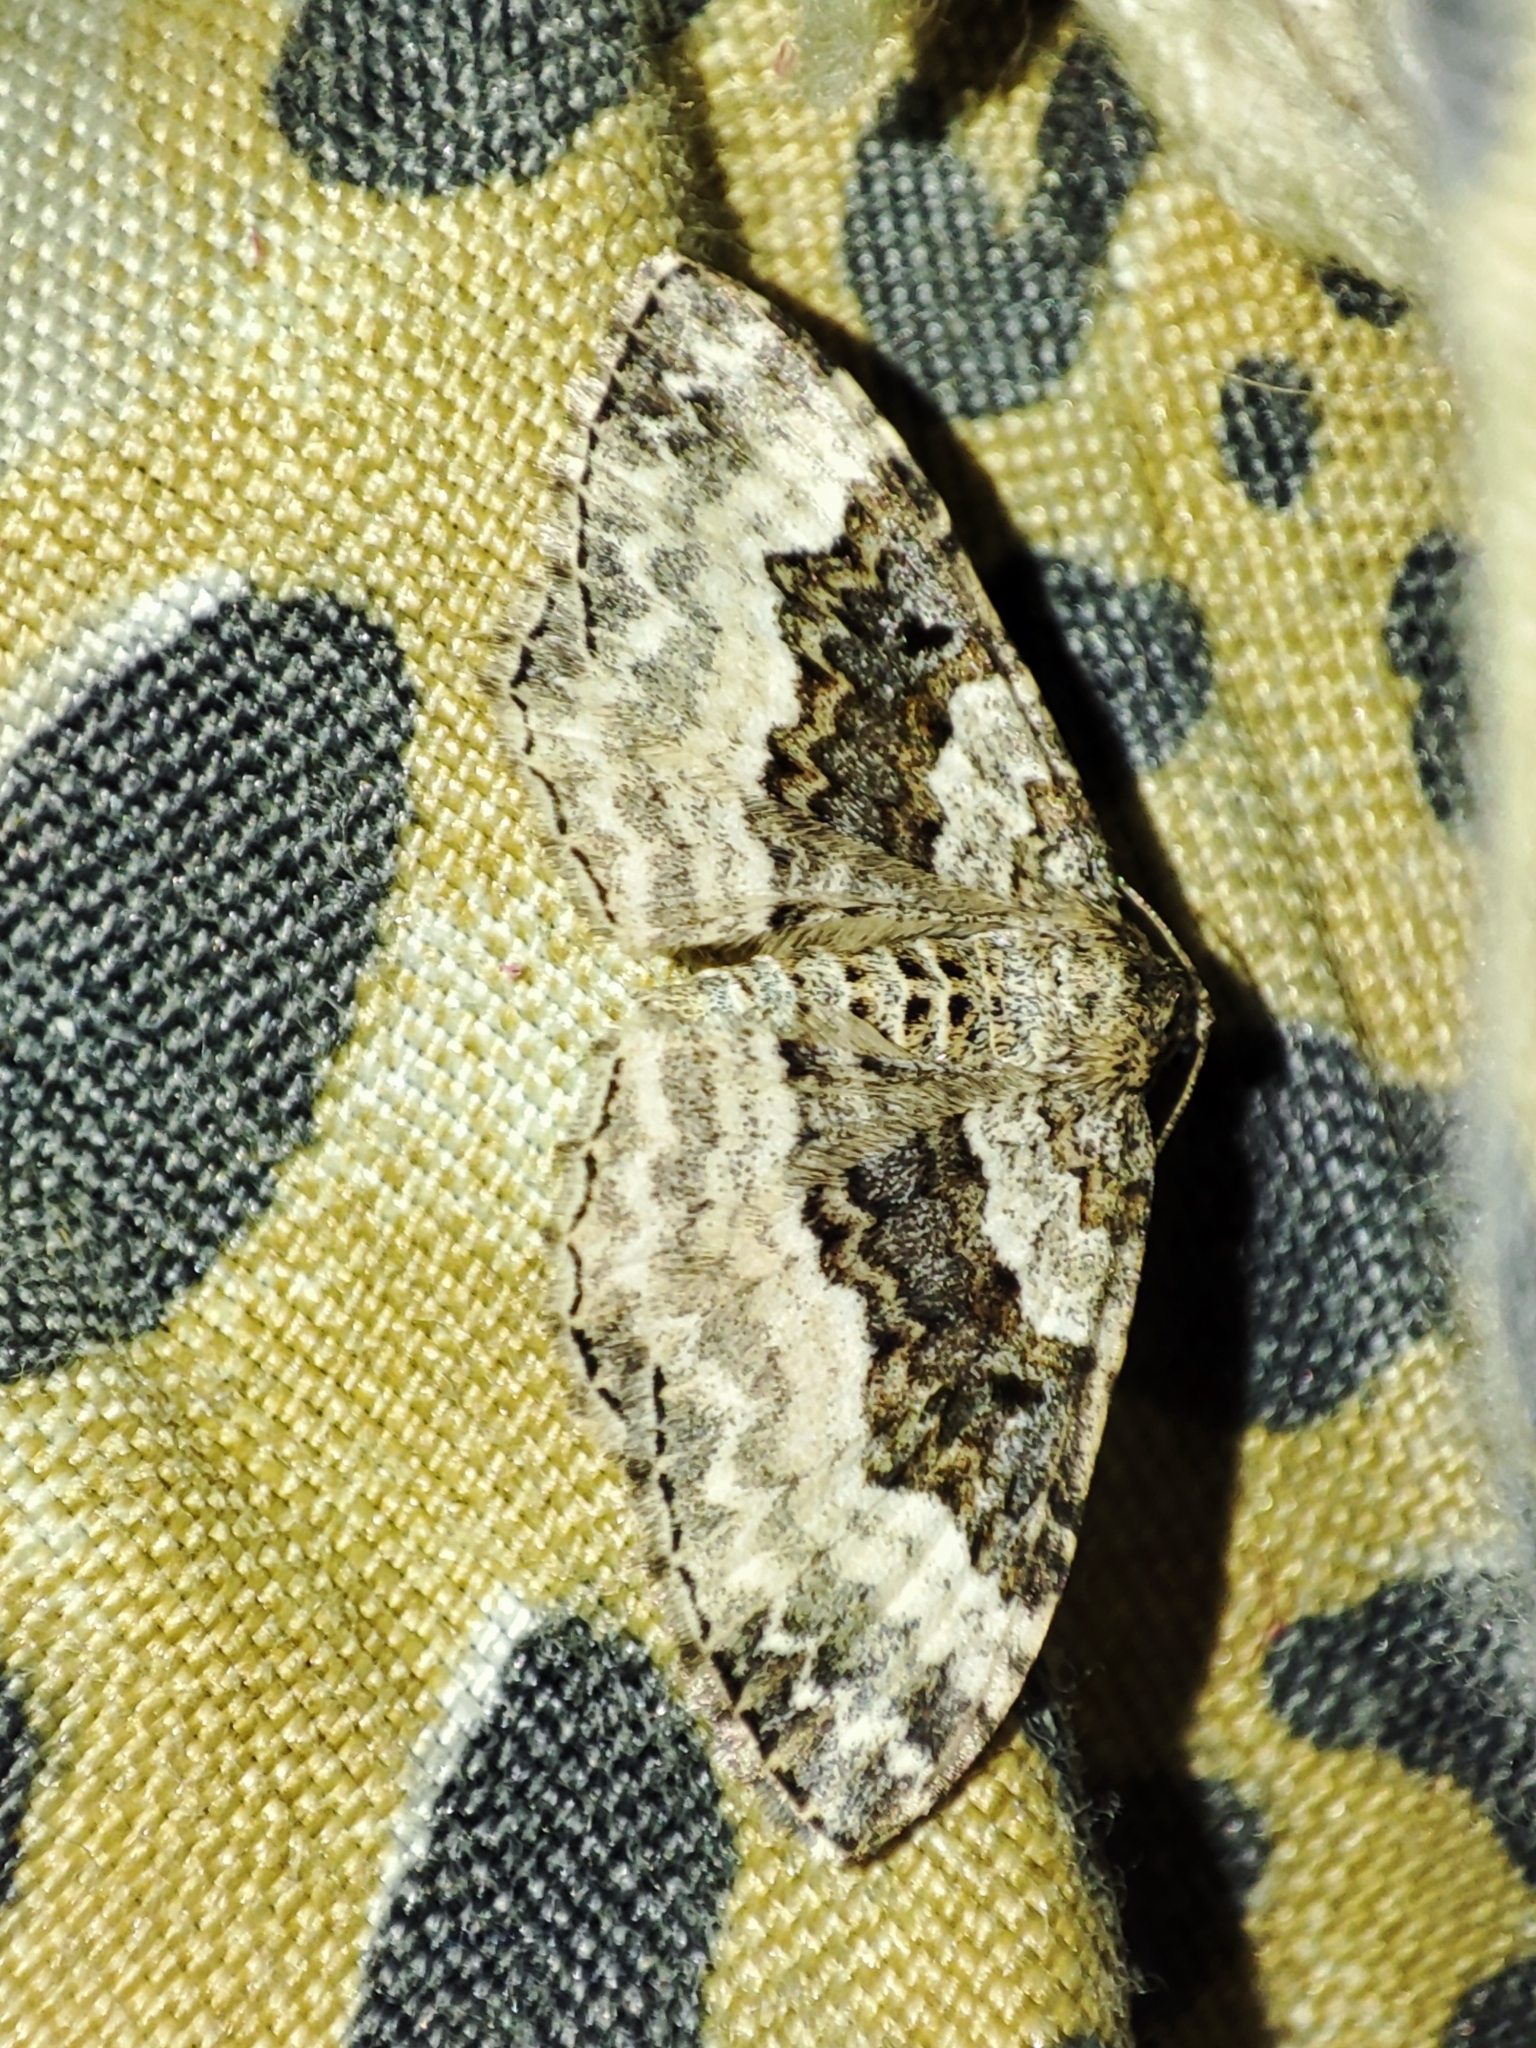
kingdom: Animalia
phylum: Arthropoda
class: Insecta
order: Lepidoptera
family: Geometridae
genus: Epirrhoe
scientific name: Epirrhoe alternata
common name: Common carpet
